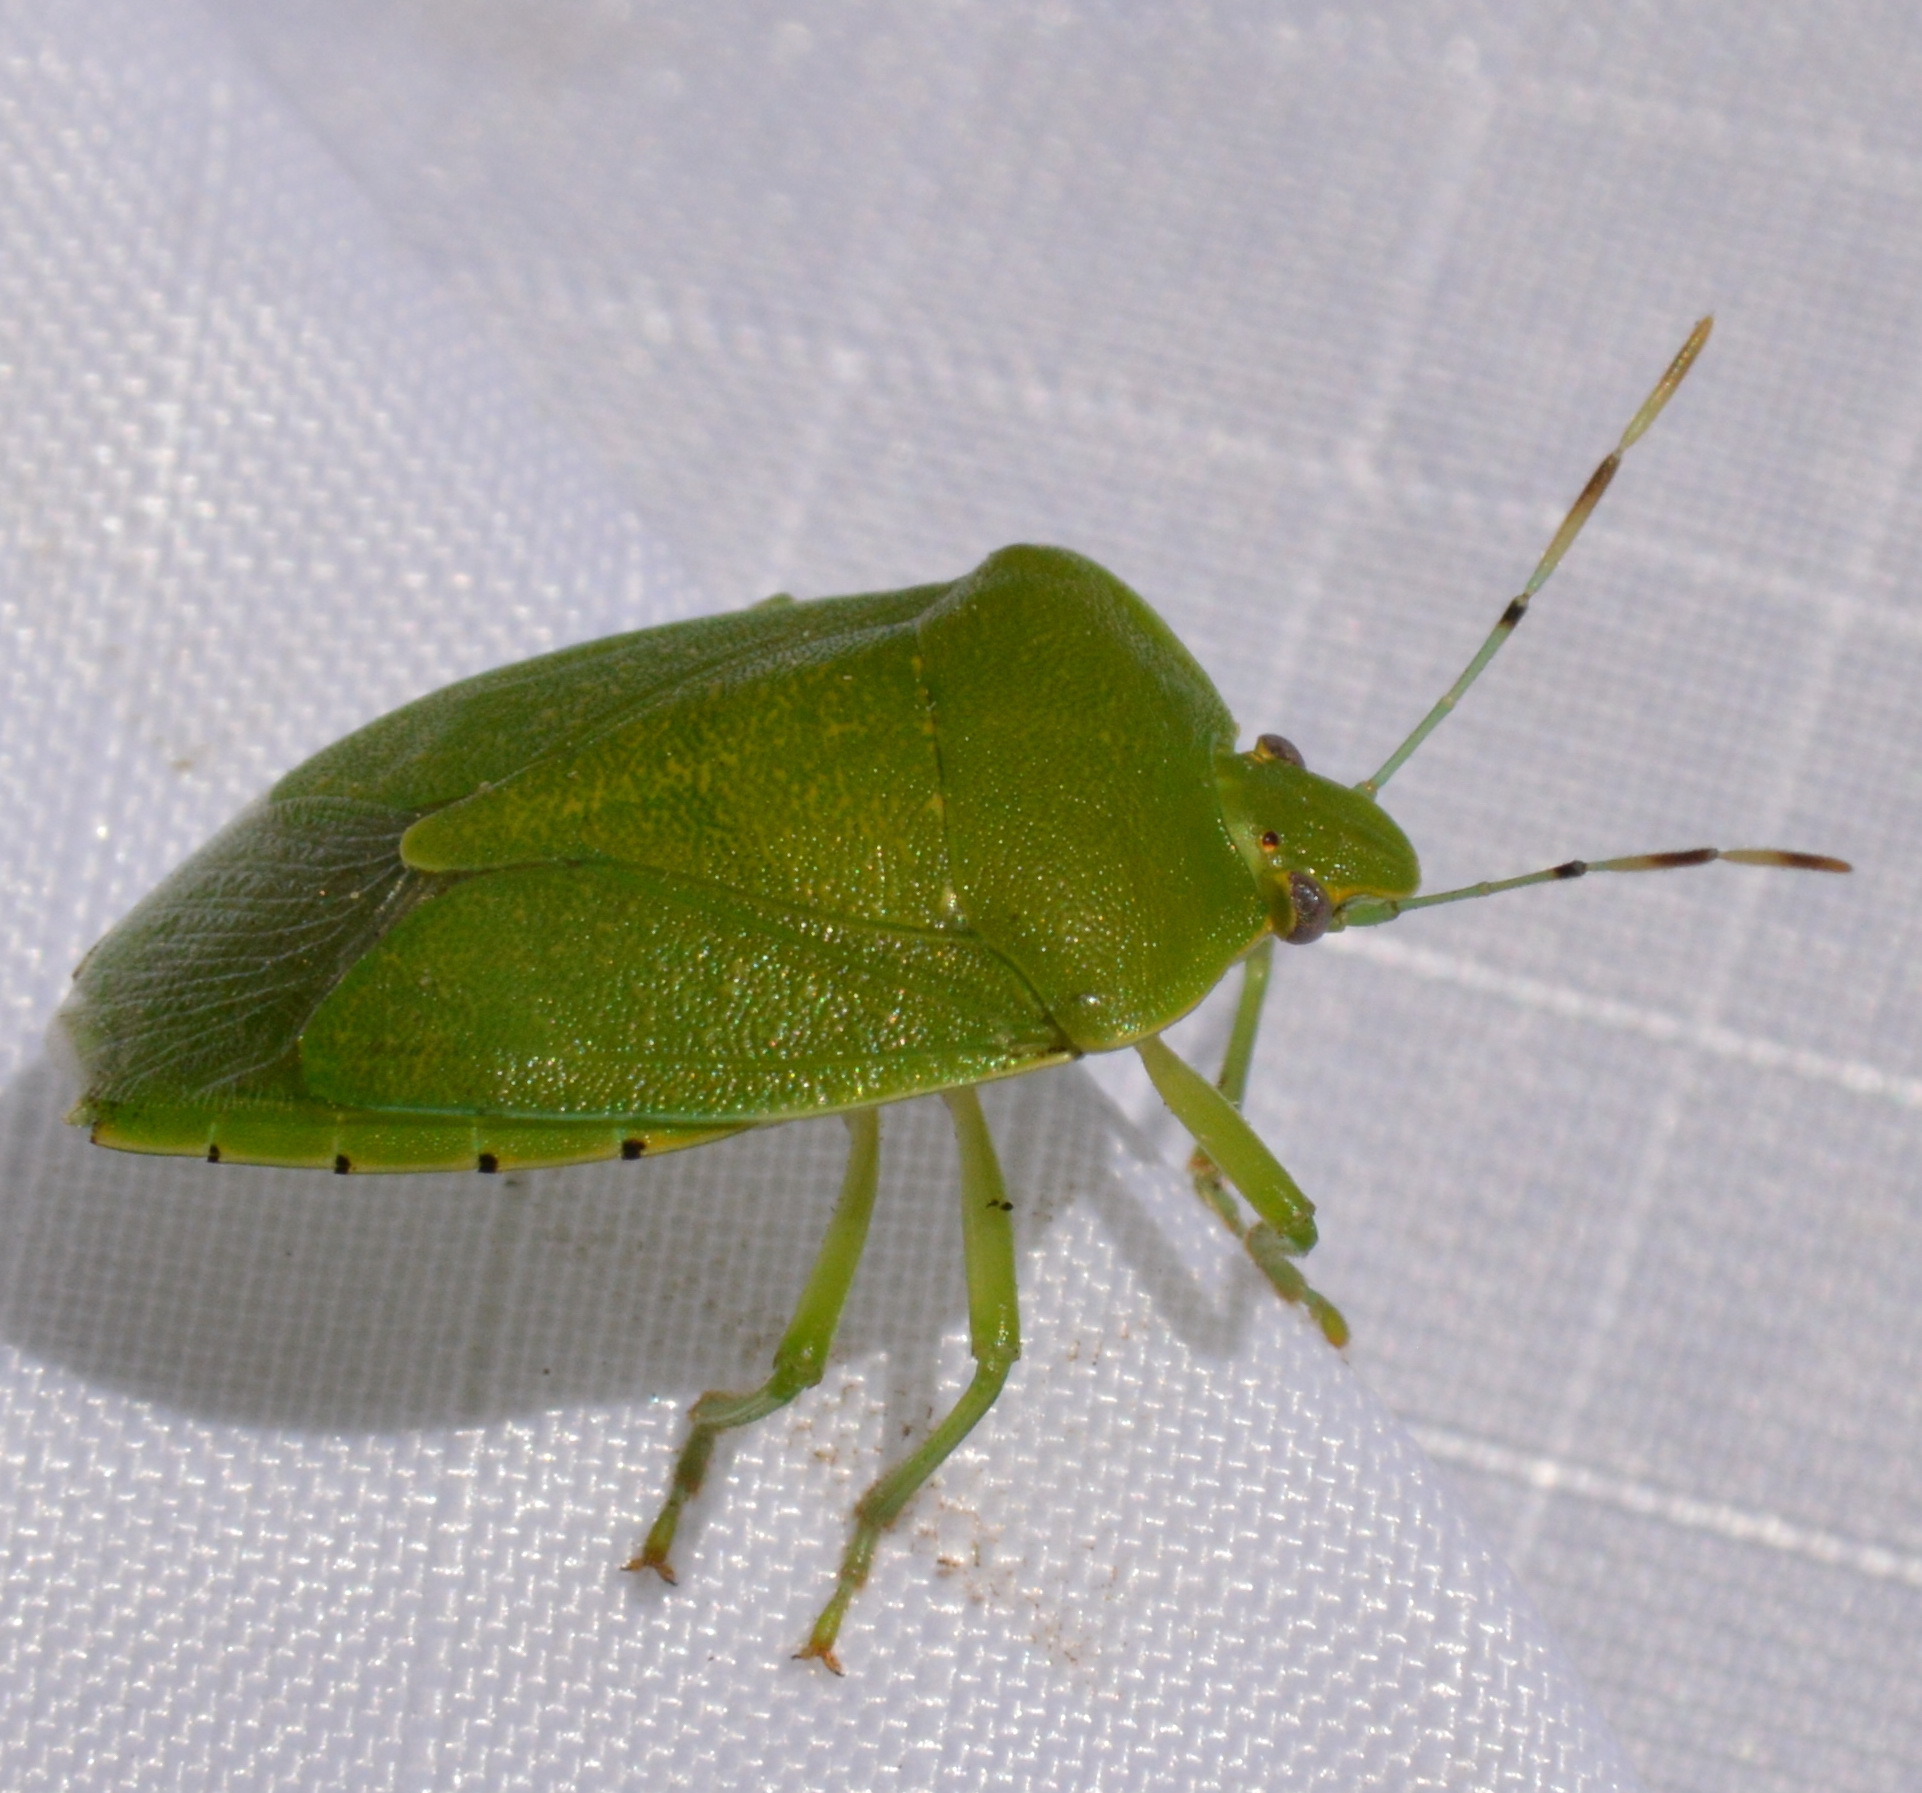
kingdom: Animalia
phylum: Arthropoda
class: Insecta
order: Hemiptera
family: Pentatomidae
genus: Chinavia
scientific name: Chinavia hilaris
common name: Green stink bug
